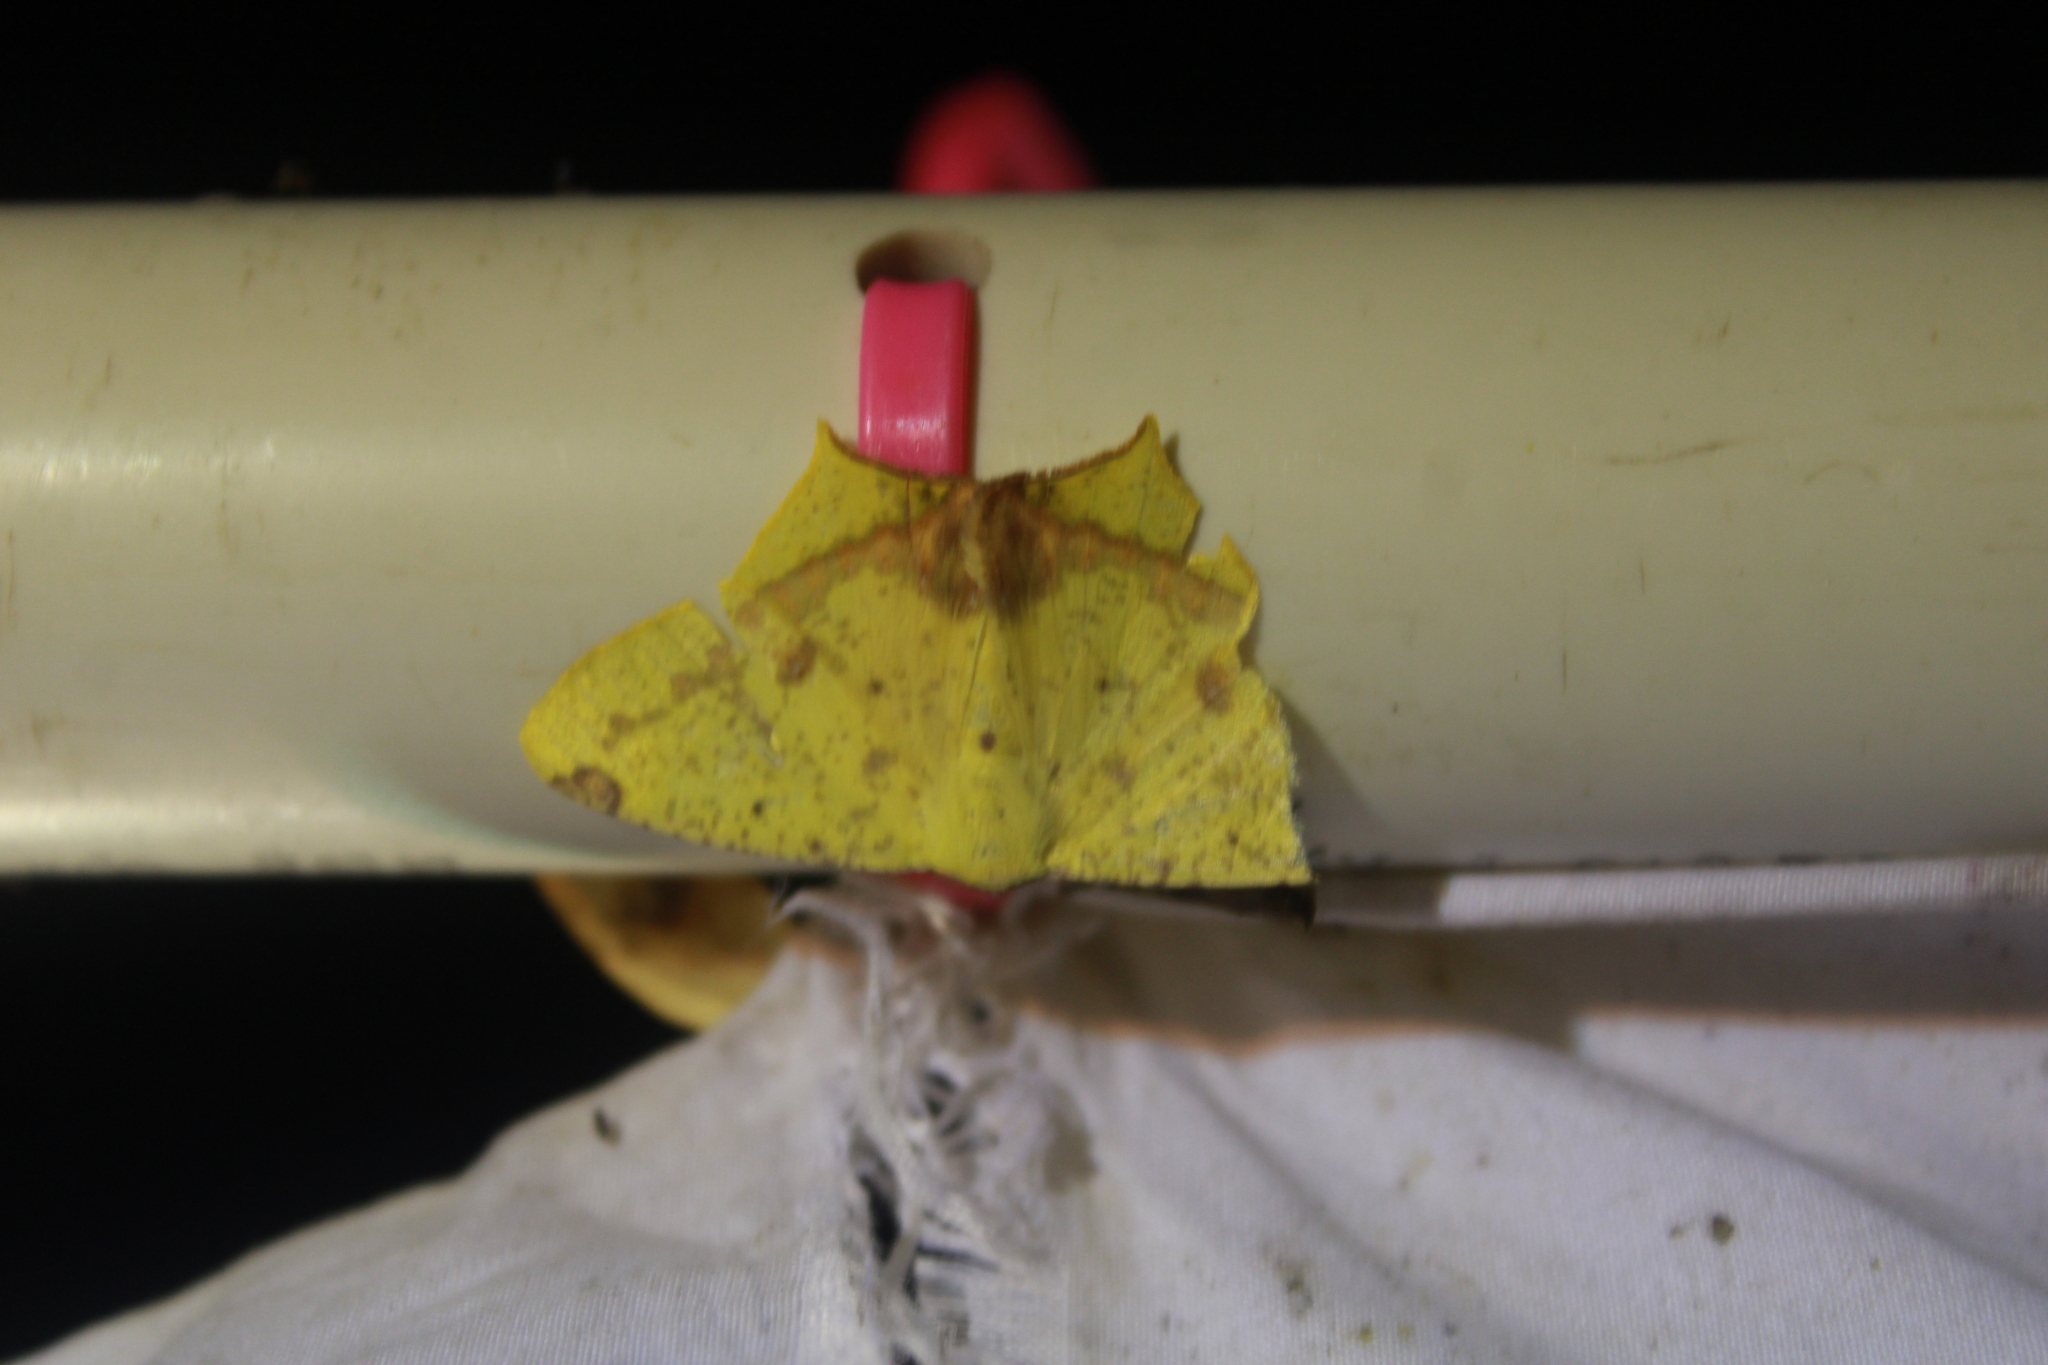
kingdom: Animalia
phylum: Arthropoda
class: Insecta
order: Lepidoptera
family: Geometridae
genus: Nepheloleuca
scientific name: Nepheloleuca floridata
